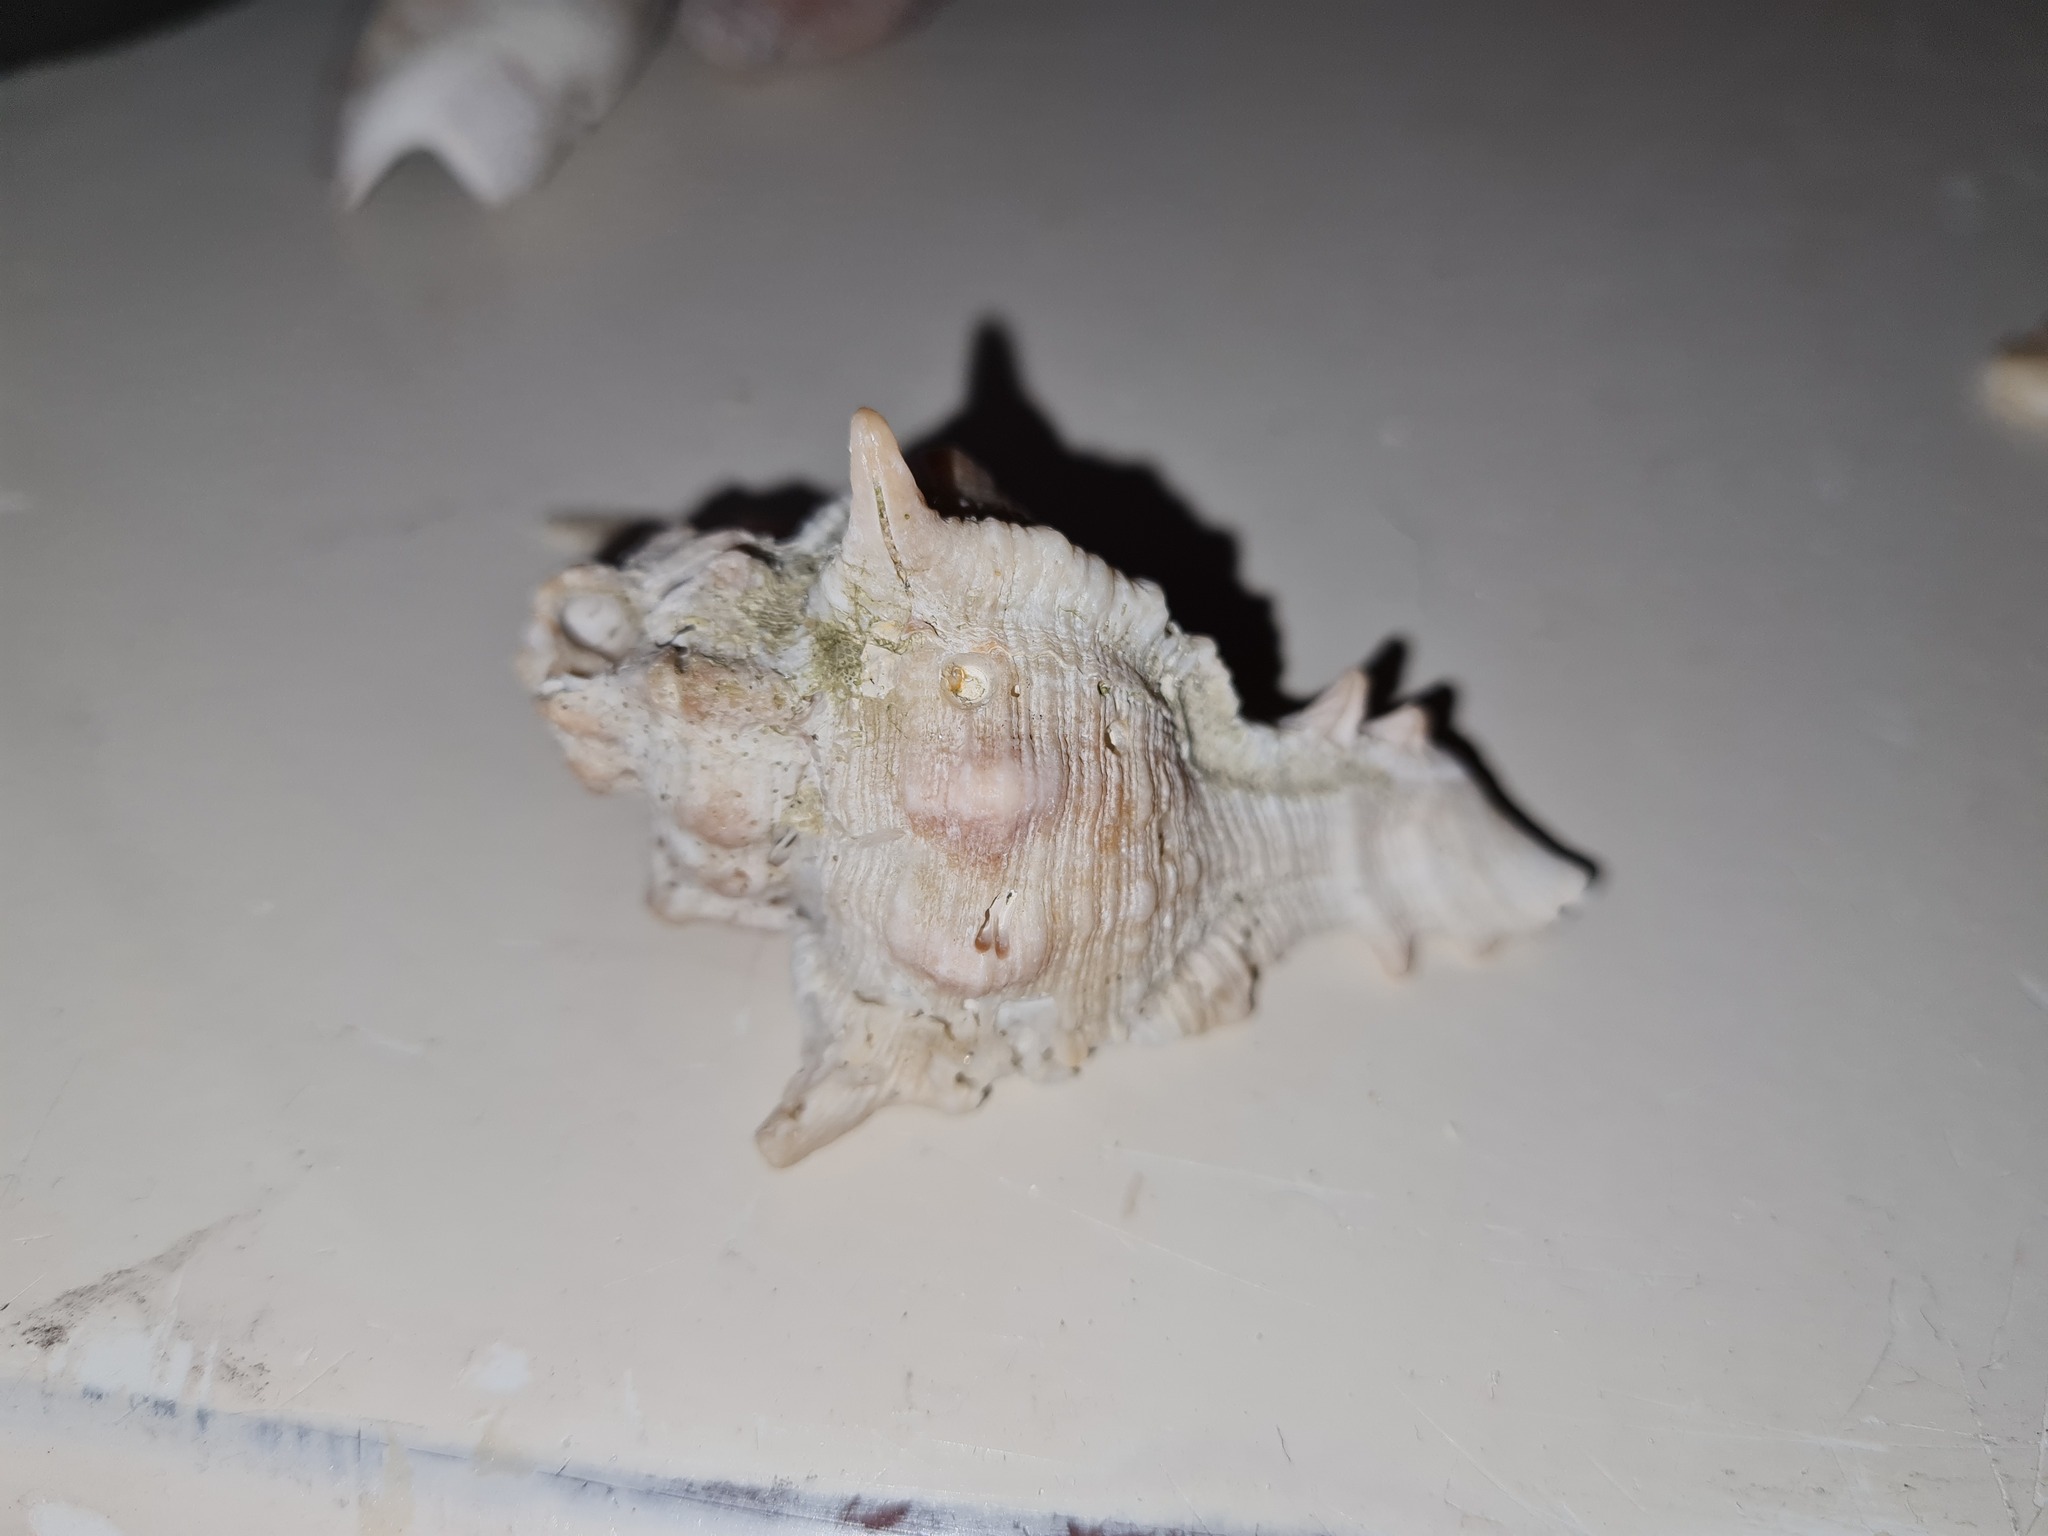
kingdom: Animalia
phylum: Mollusca
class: Gastropoda
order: Neogastropoda
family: Muricidae
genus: Siratus
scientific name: Siratus senegalensis
